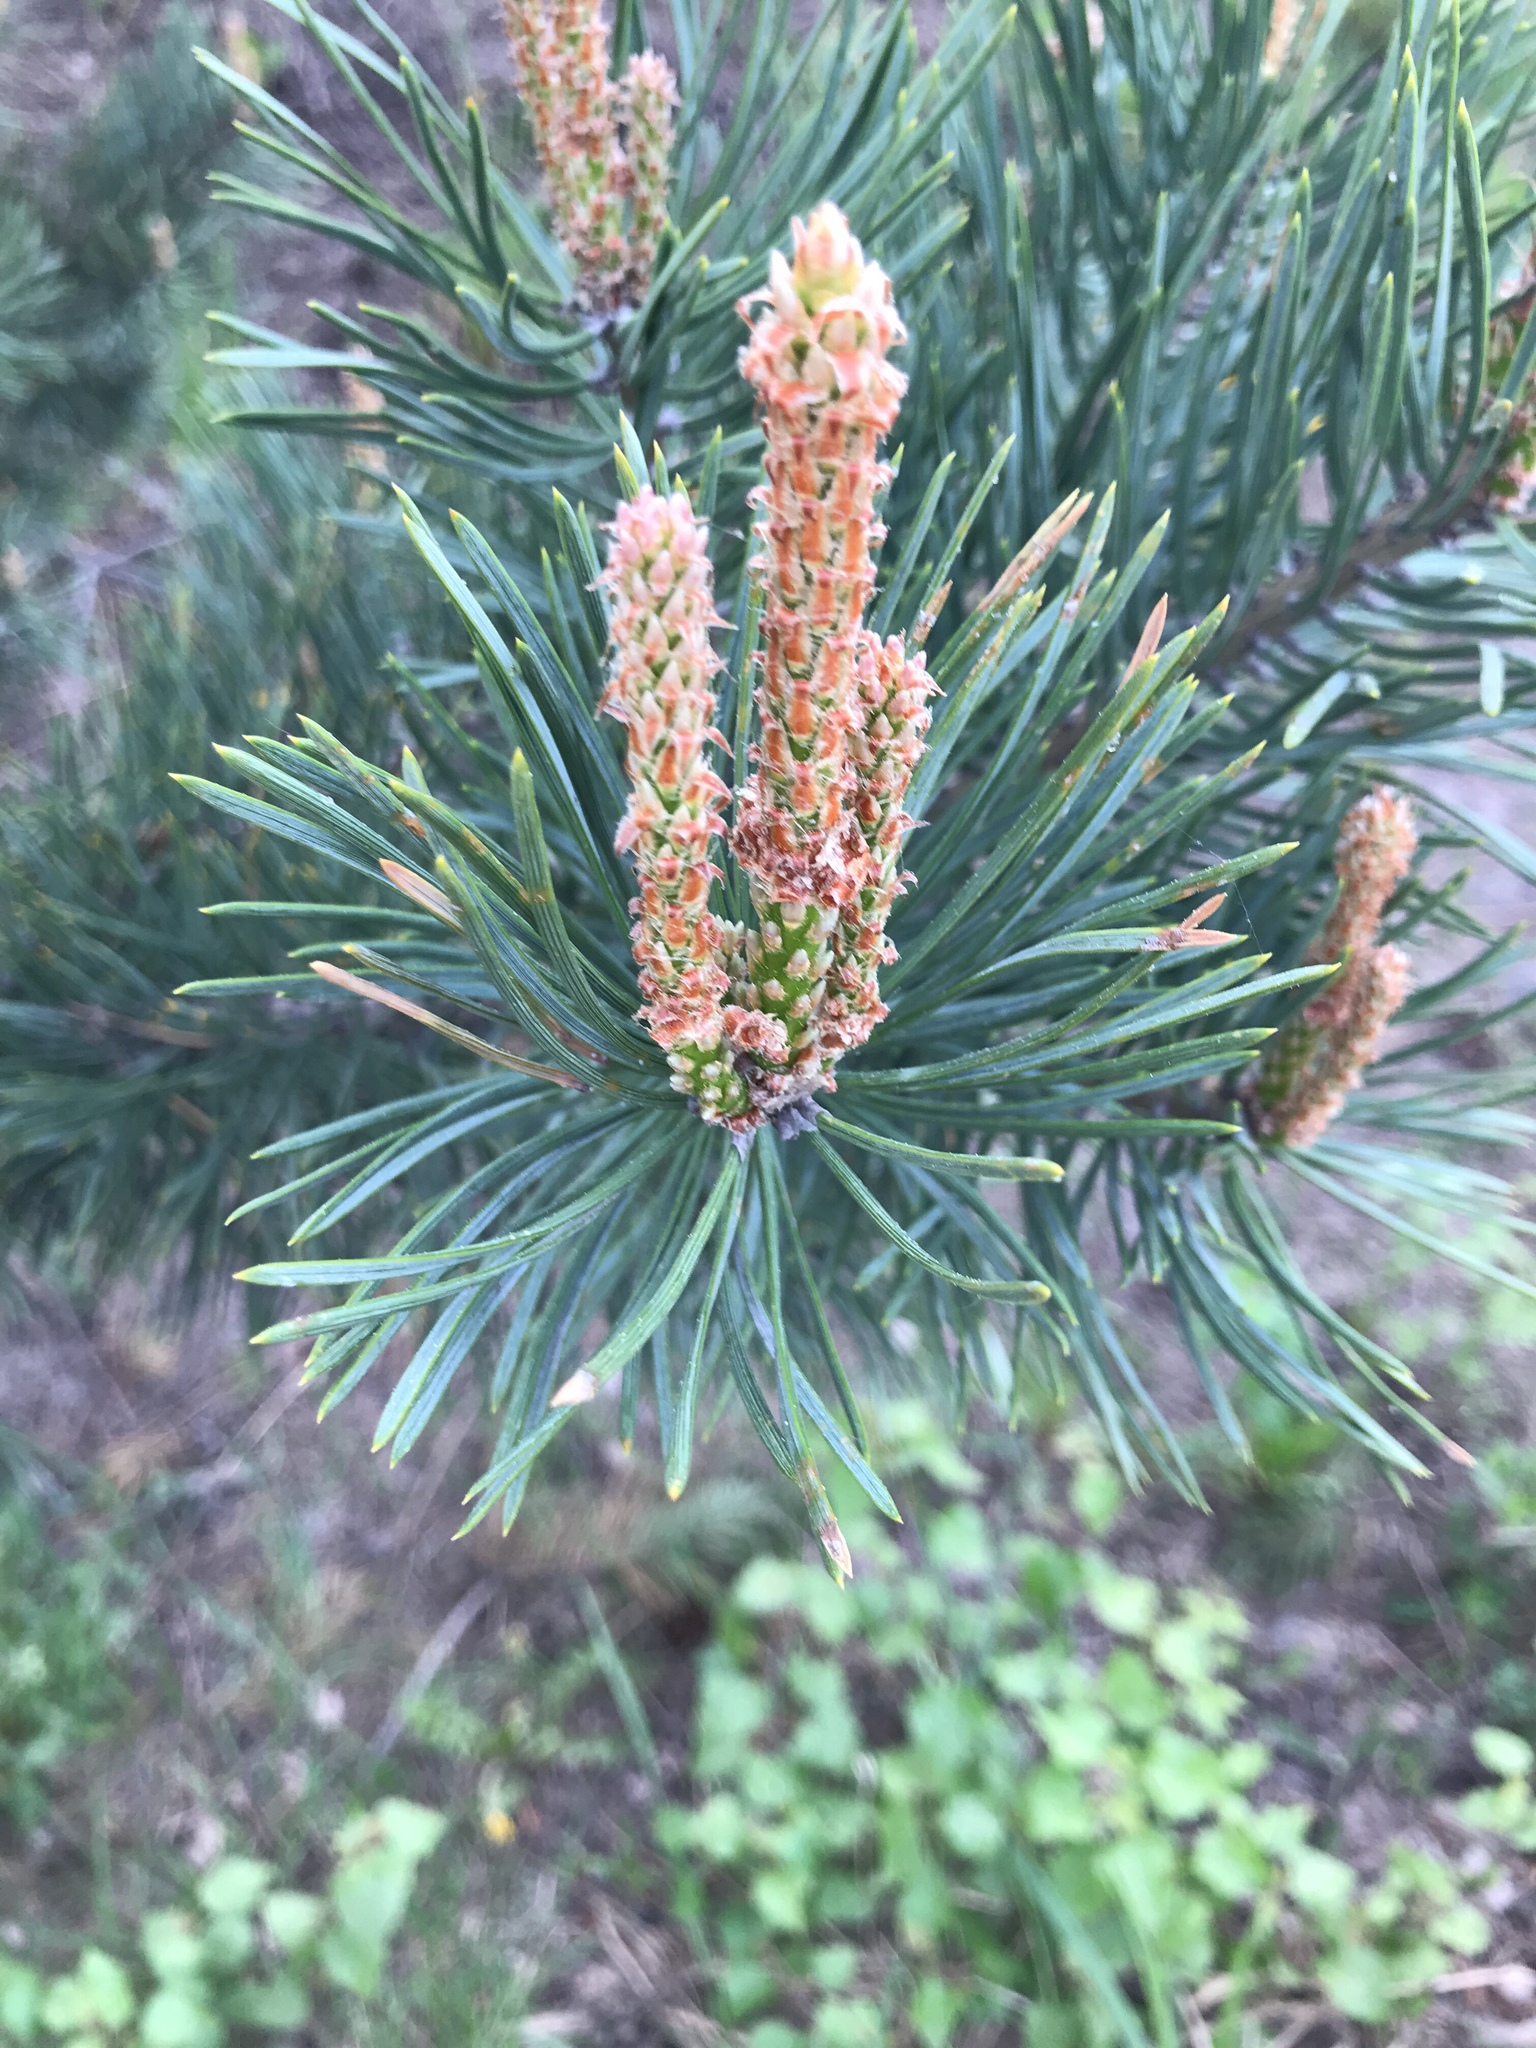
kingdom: Plantae
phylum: Tracheophyta
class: Pinopsida
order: Pinales
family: Pinaceae
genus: Pinus
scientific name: Pinus sylvestris
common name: Scots pine
